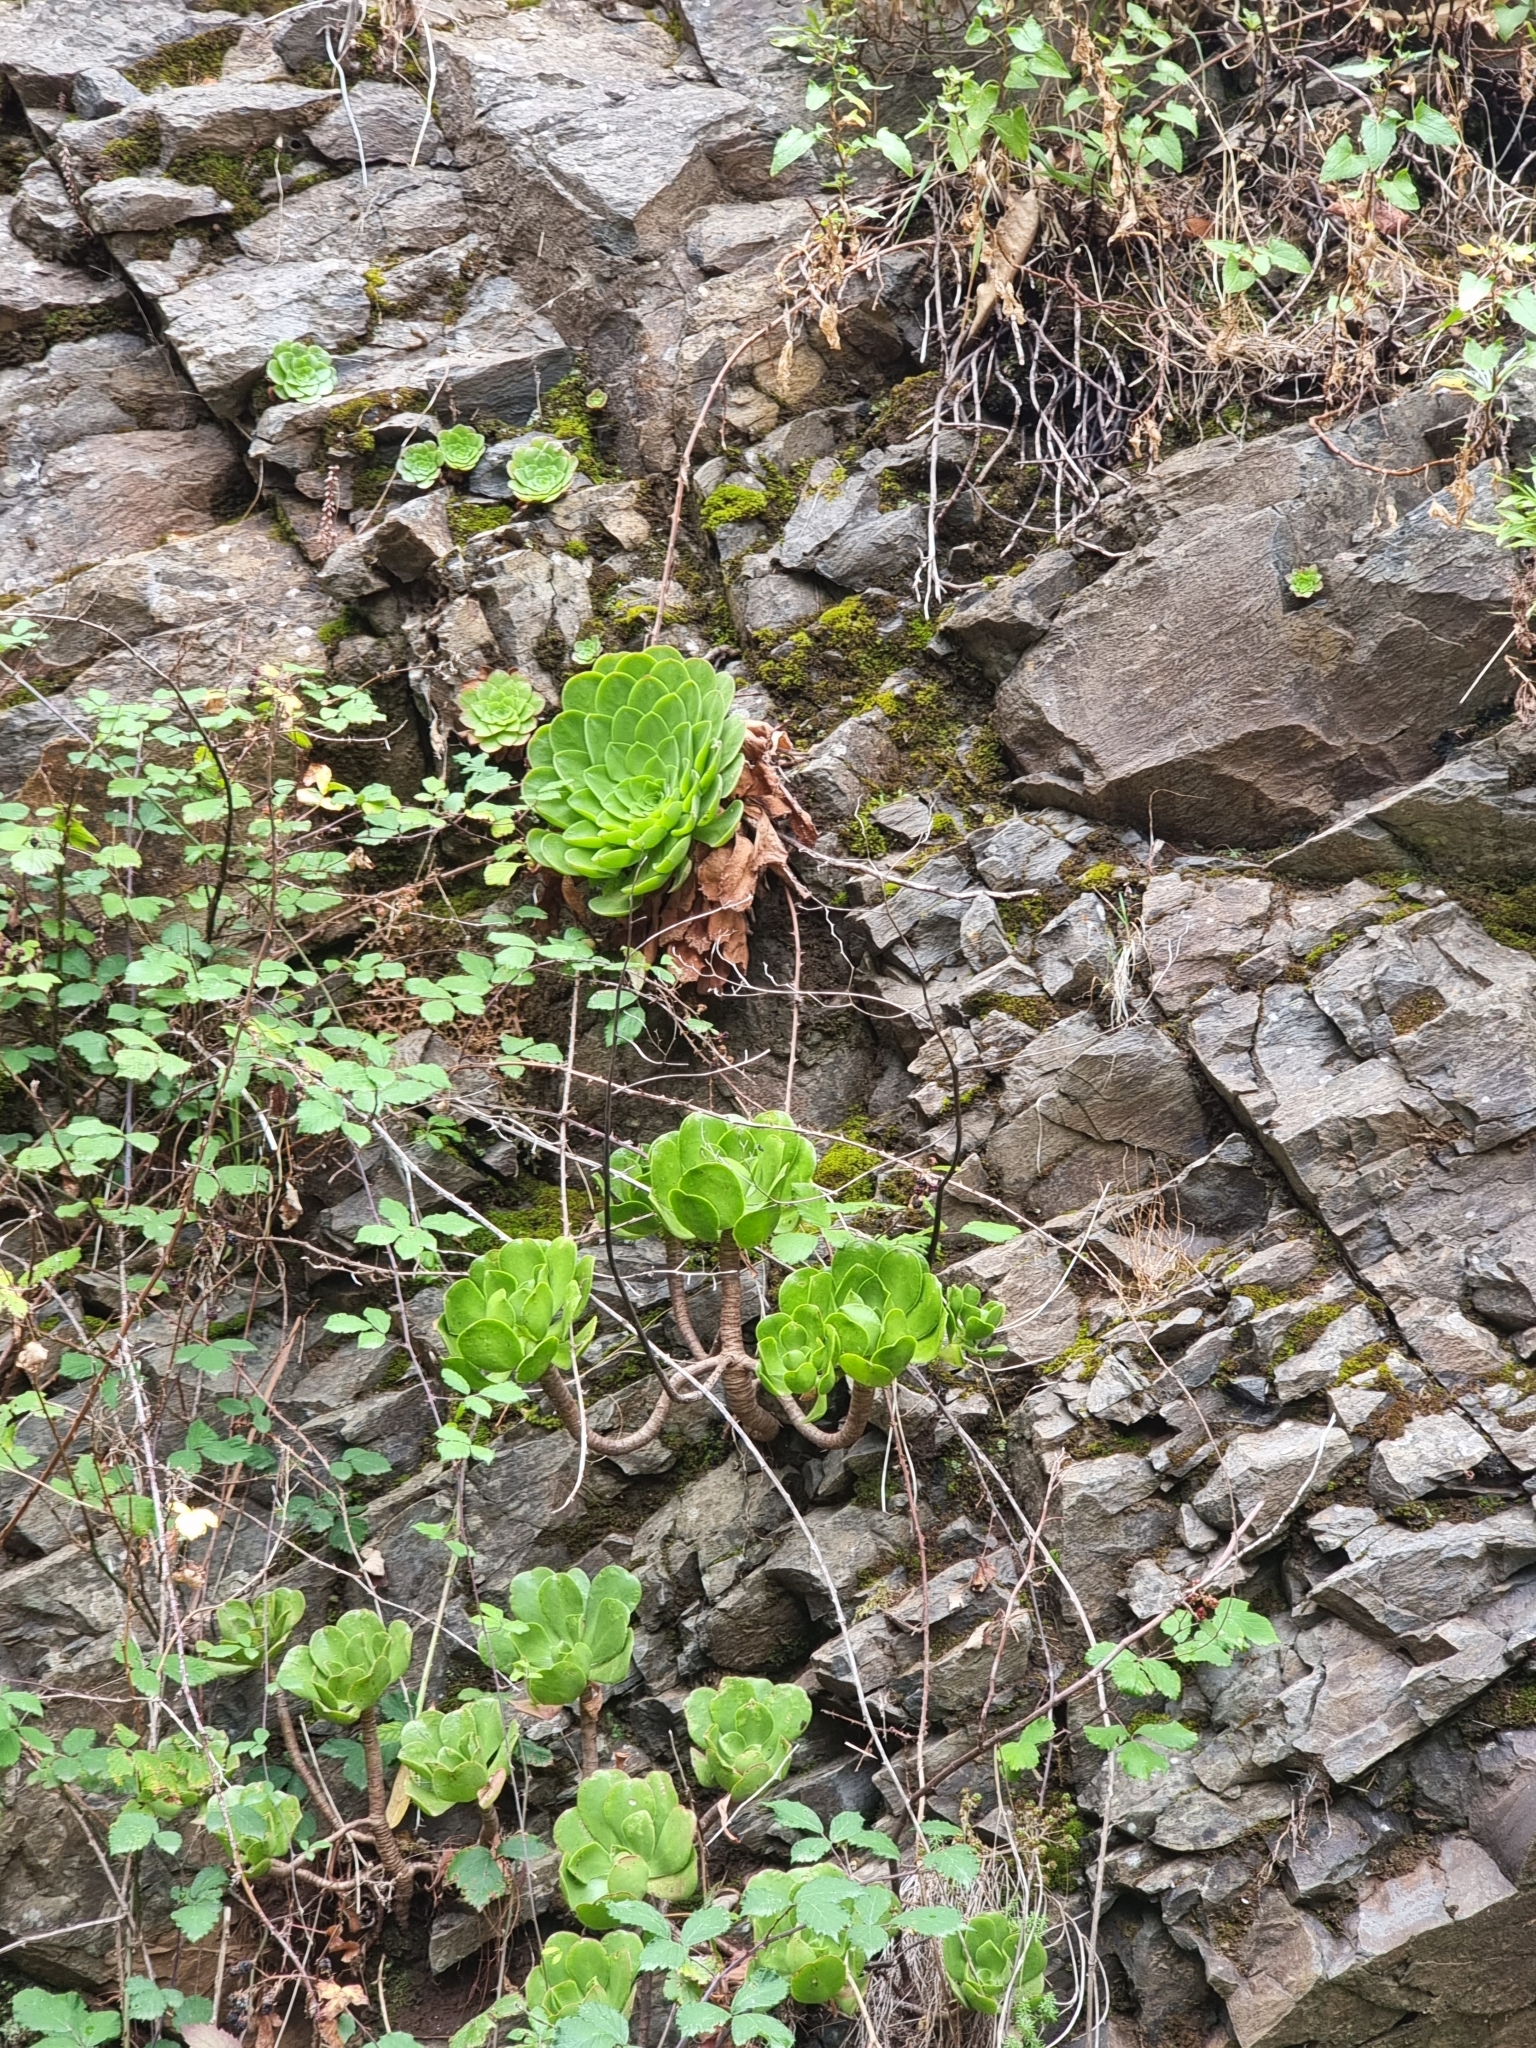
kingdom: Plantae
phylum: Tracheophyta
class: Magnoliopsida
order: Saxifragales
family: Crassulaceae
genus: Aeonium
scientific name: Aeonium glandulosum
